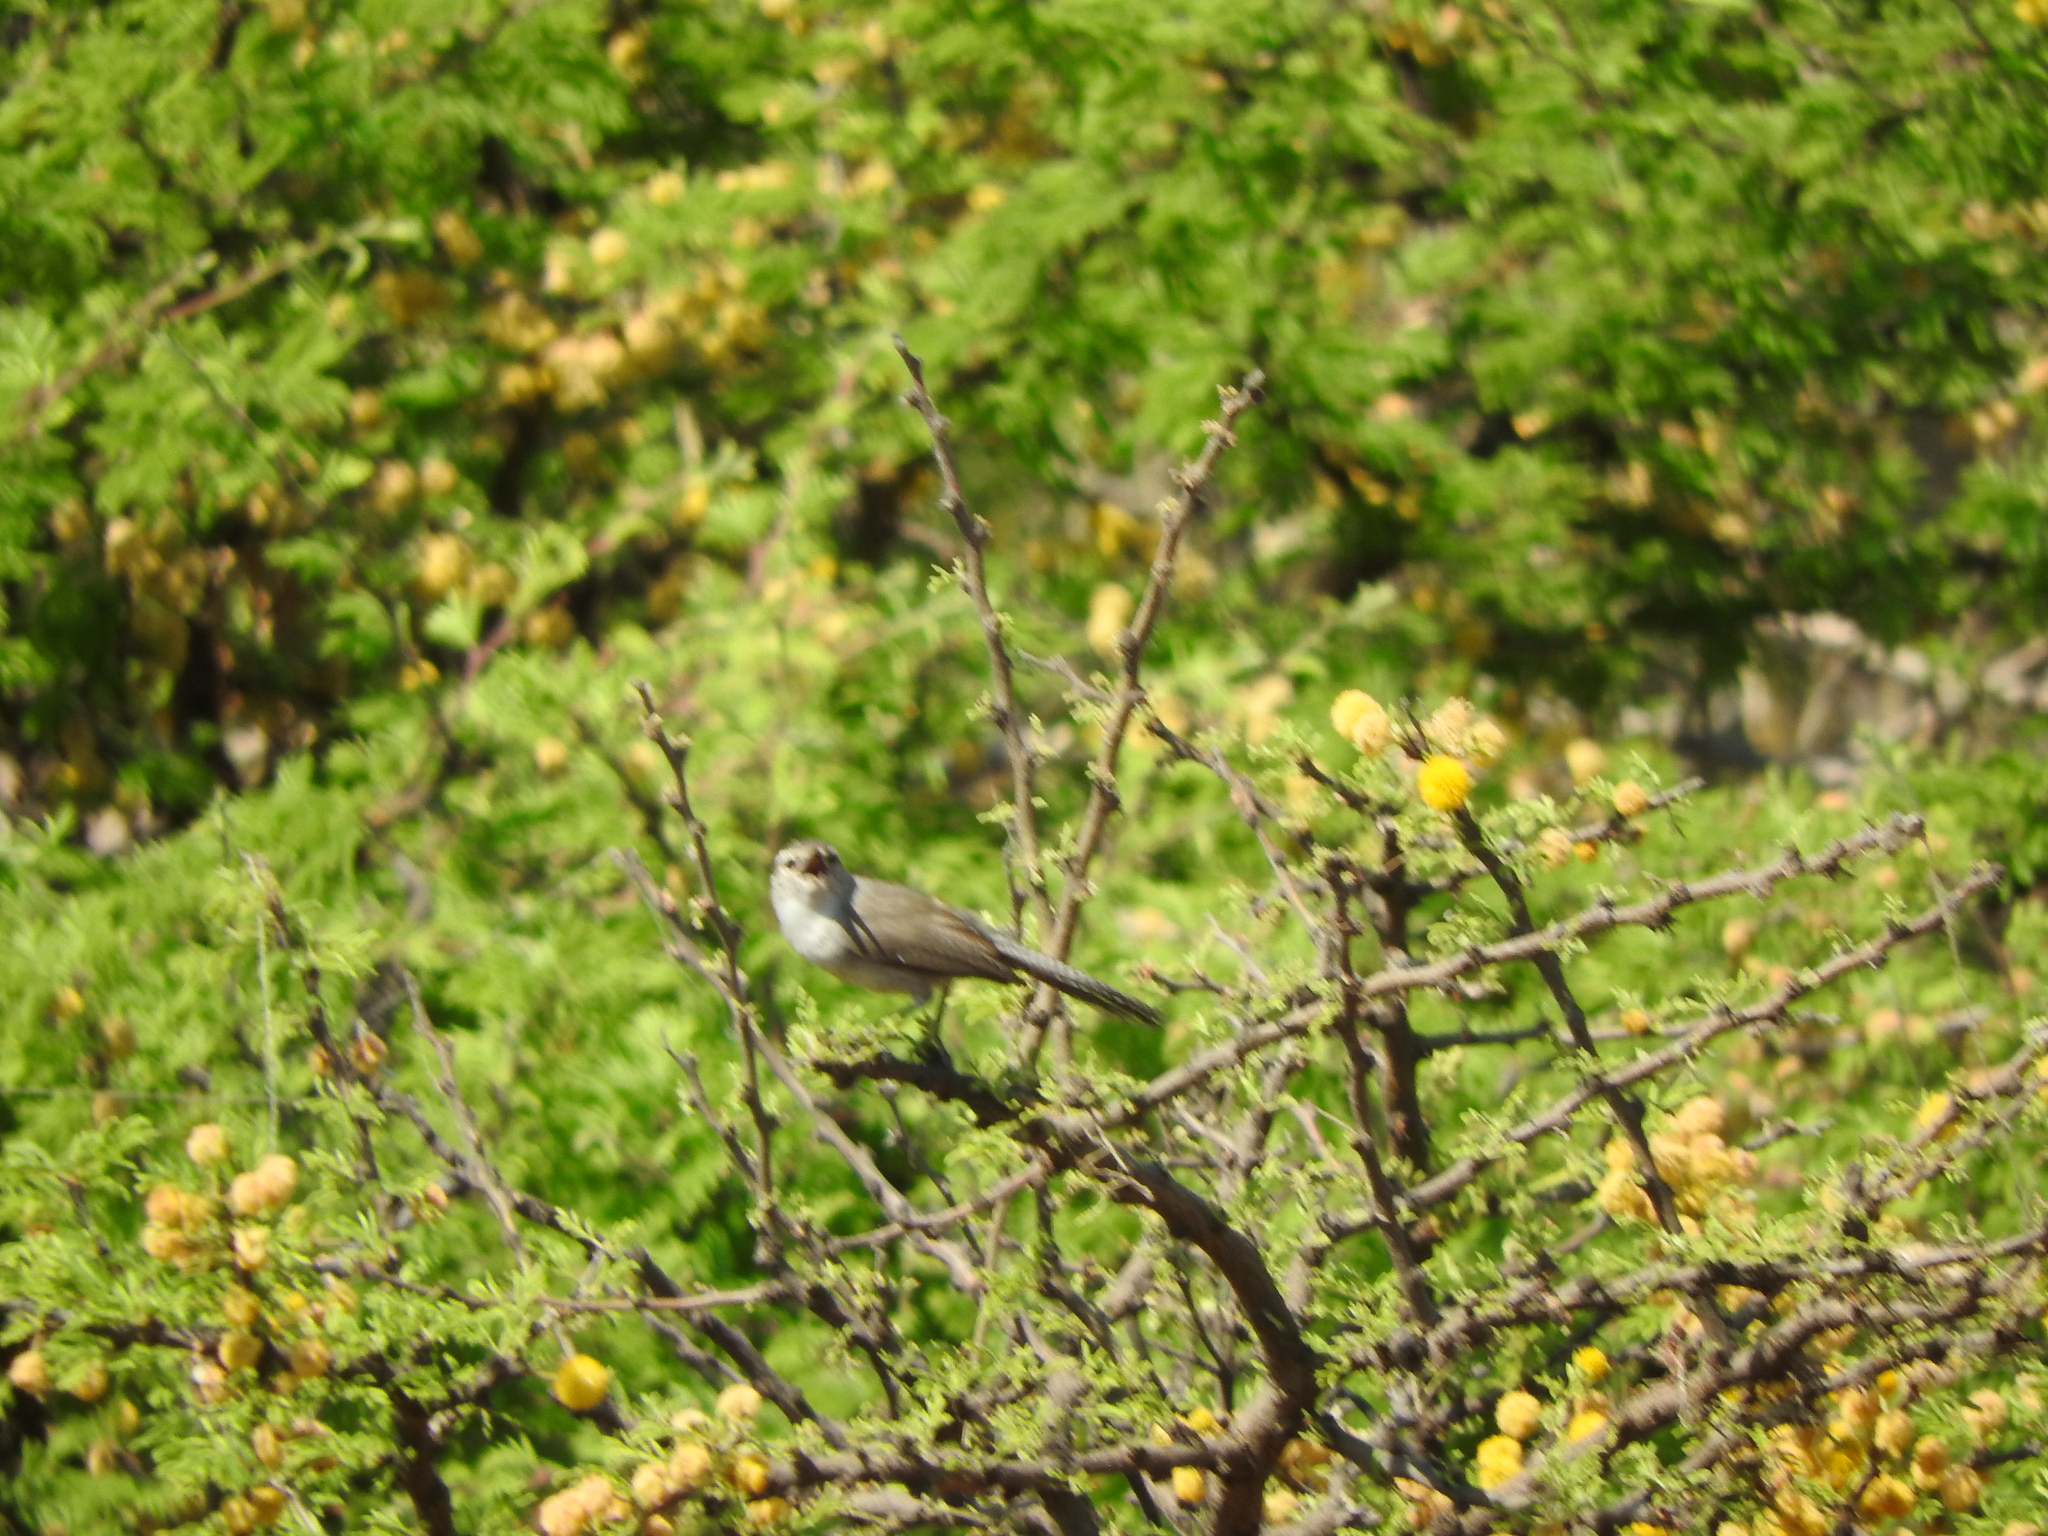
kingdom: Animalia
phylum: Chordata
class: Aves
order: Passeriformes
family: Troglodytidae
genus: Thryomanes
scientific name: Thryomanes bewickii
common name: Bewick's wren
